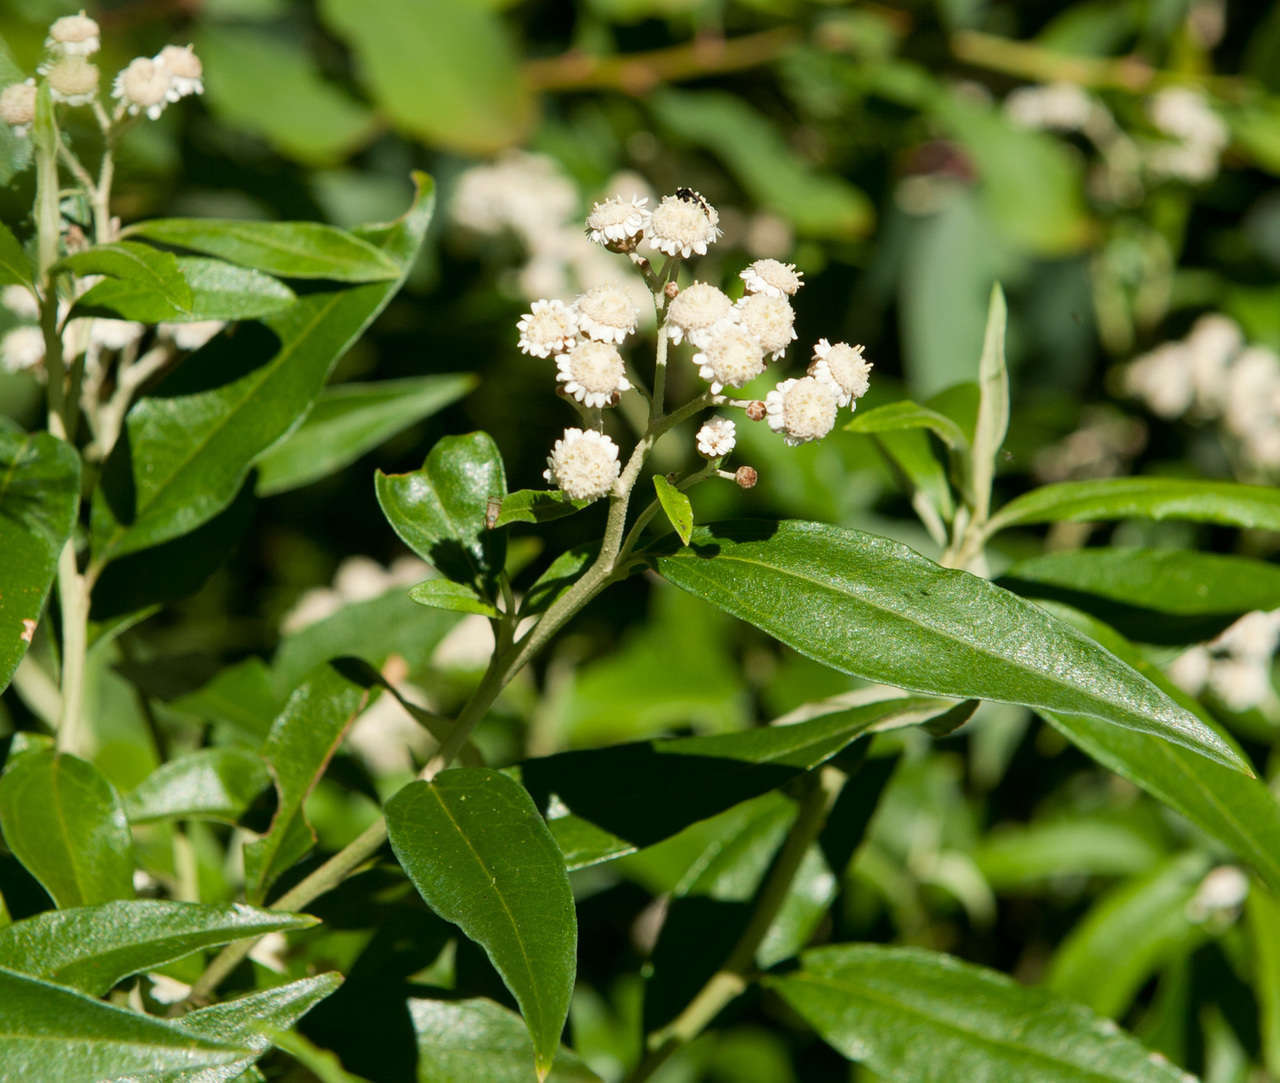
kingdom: Plantae
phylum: Tracheophyta
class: Magnoliopsida
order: Asterales
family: Asteraceae
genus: Ozothamnus
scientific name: Ozothamnus stirlingii
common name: Ovens everlasting
